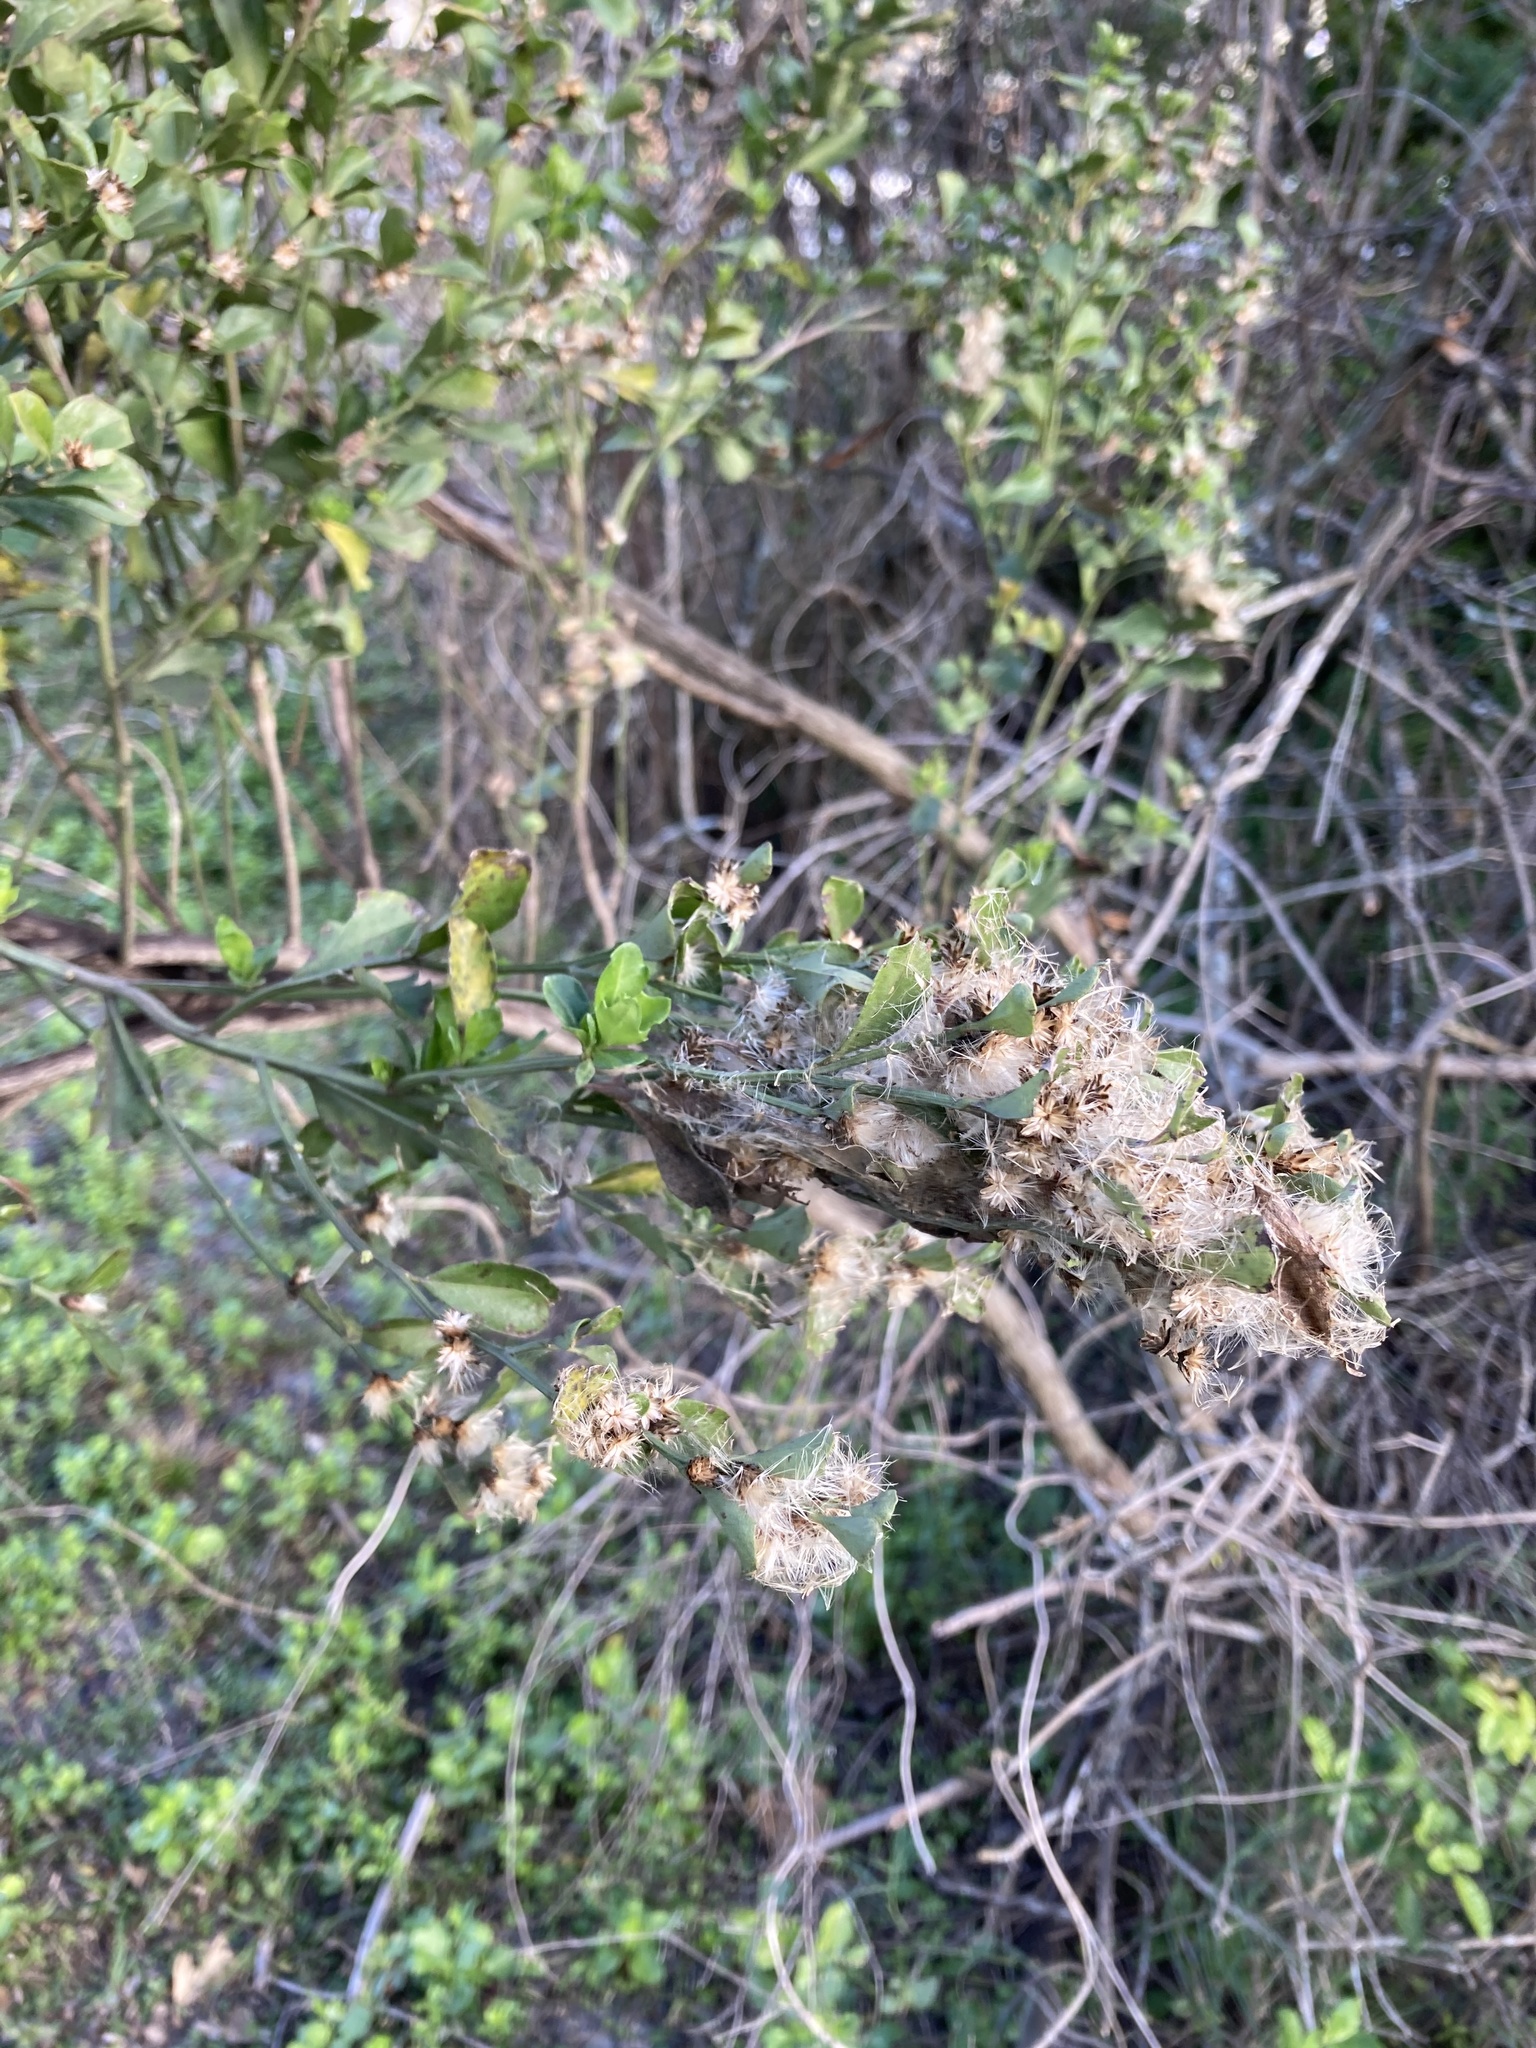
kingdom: Plantae
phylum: Tracheophyta
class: Magnoliopsida
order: Asterales
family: Asteraceae
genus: Baccharis
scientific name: Baccharis glomeruliflora
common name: Silverling groundsel bush
